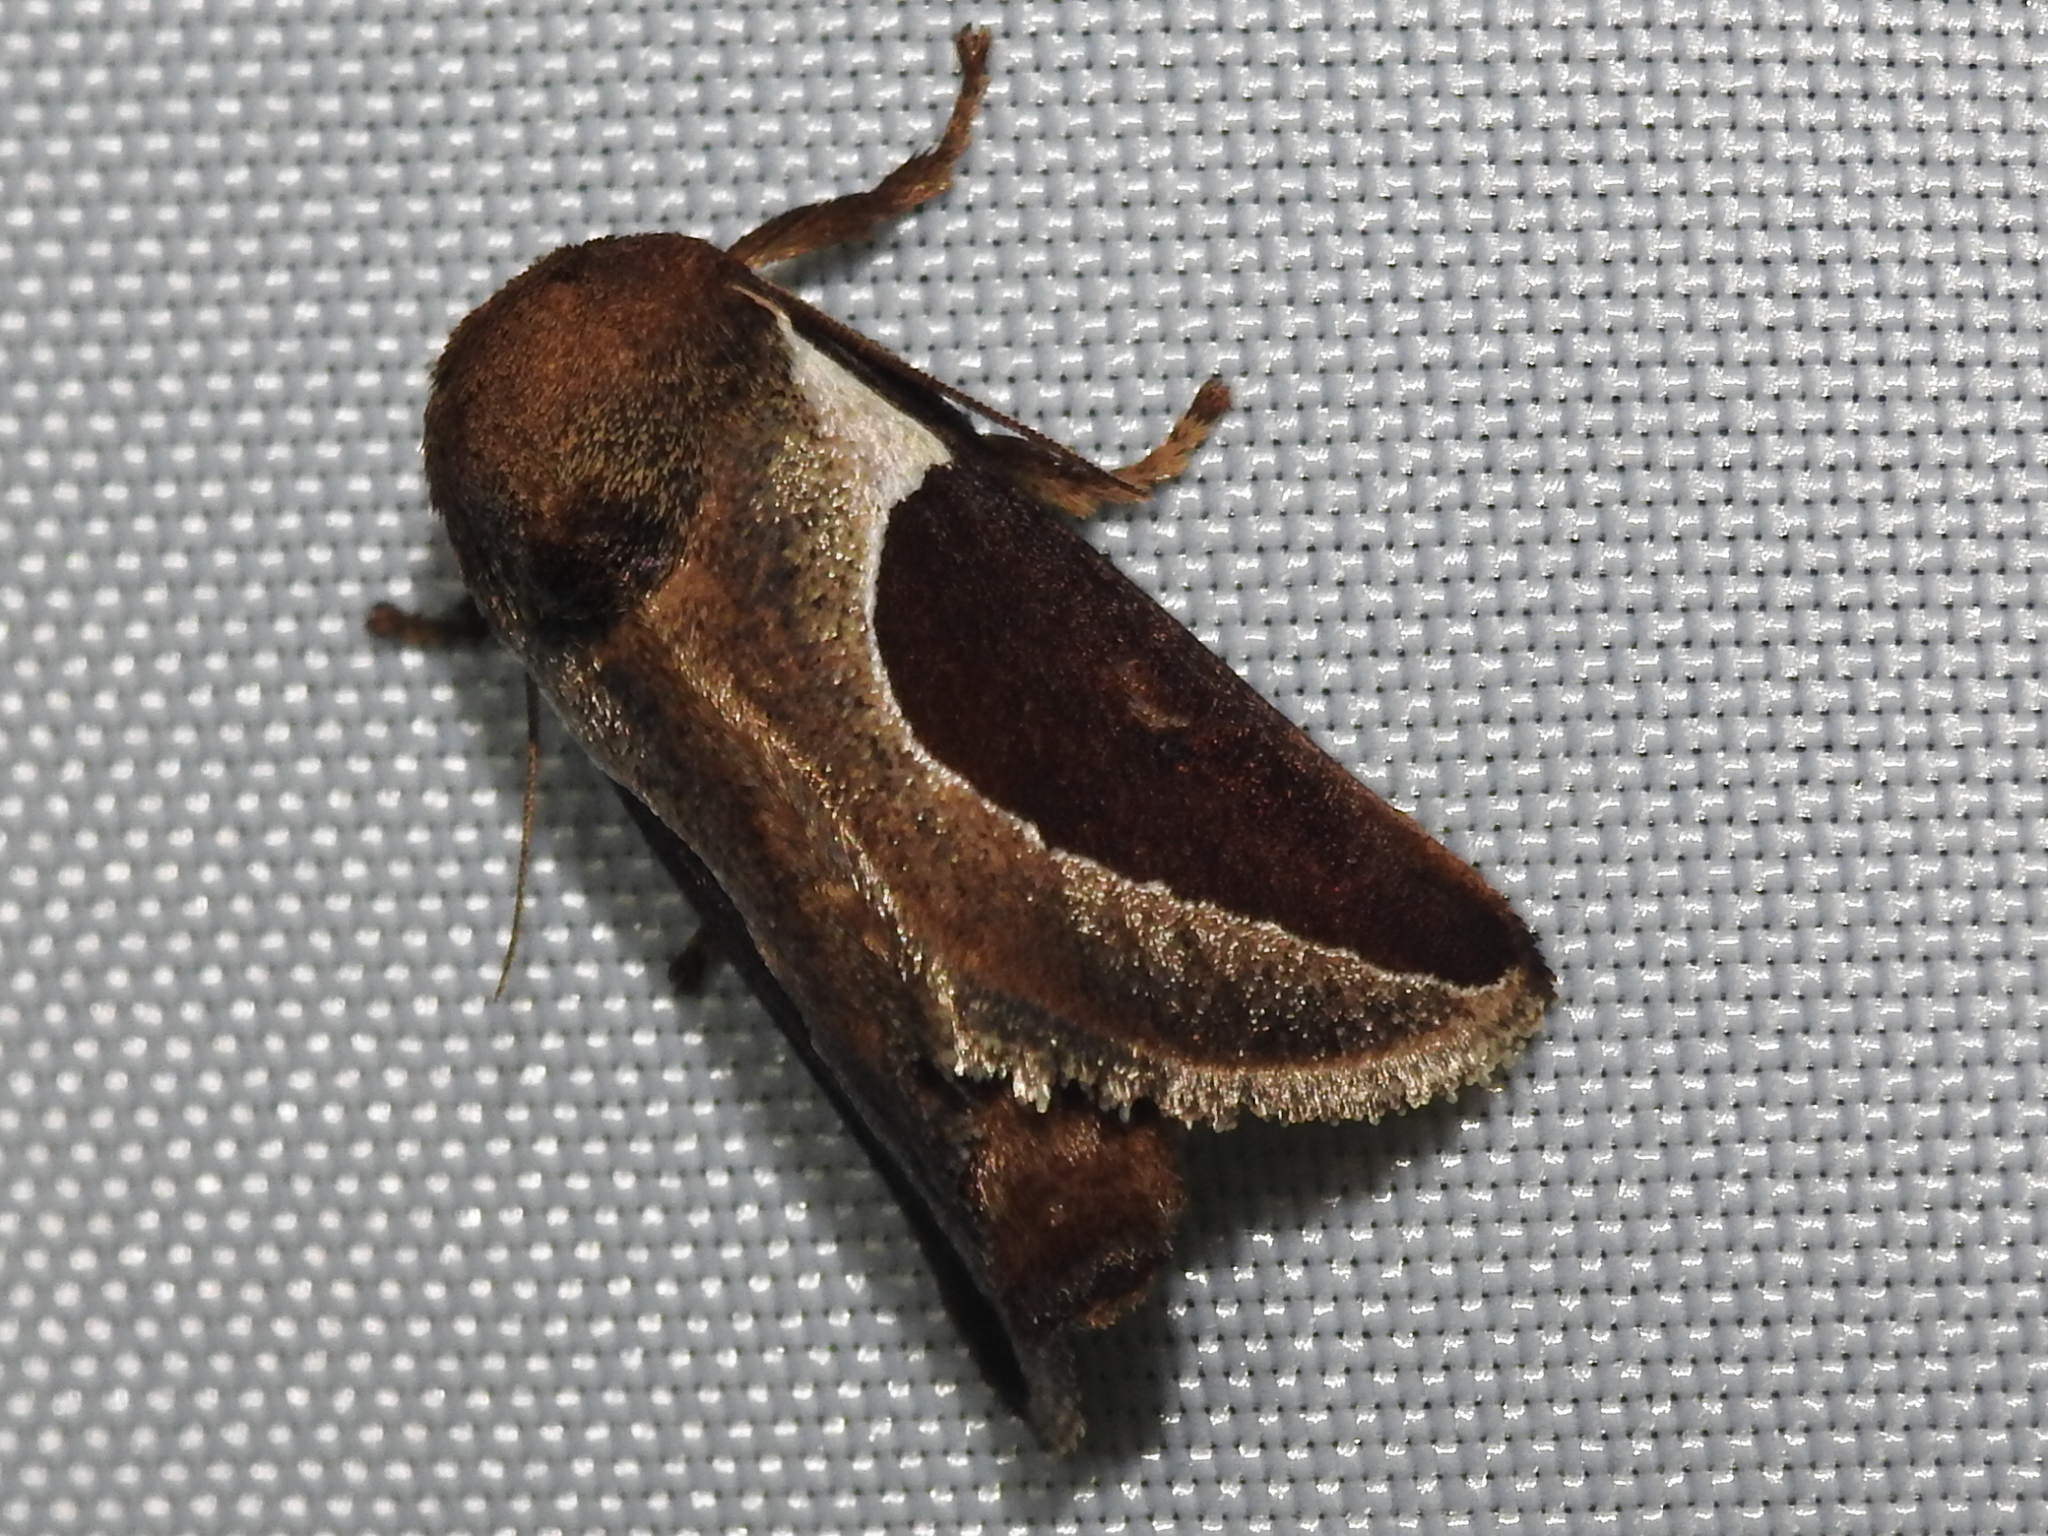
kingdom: Animalia
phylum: Arthropoda
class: Insecta
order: Lepidoptera
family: Limacodidae
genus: Prolimacodes
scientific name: Prolimacodes badia
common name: Skiff moth
